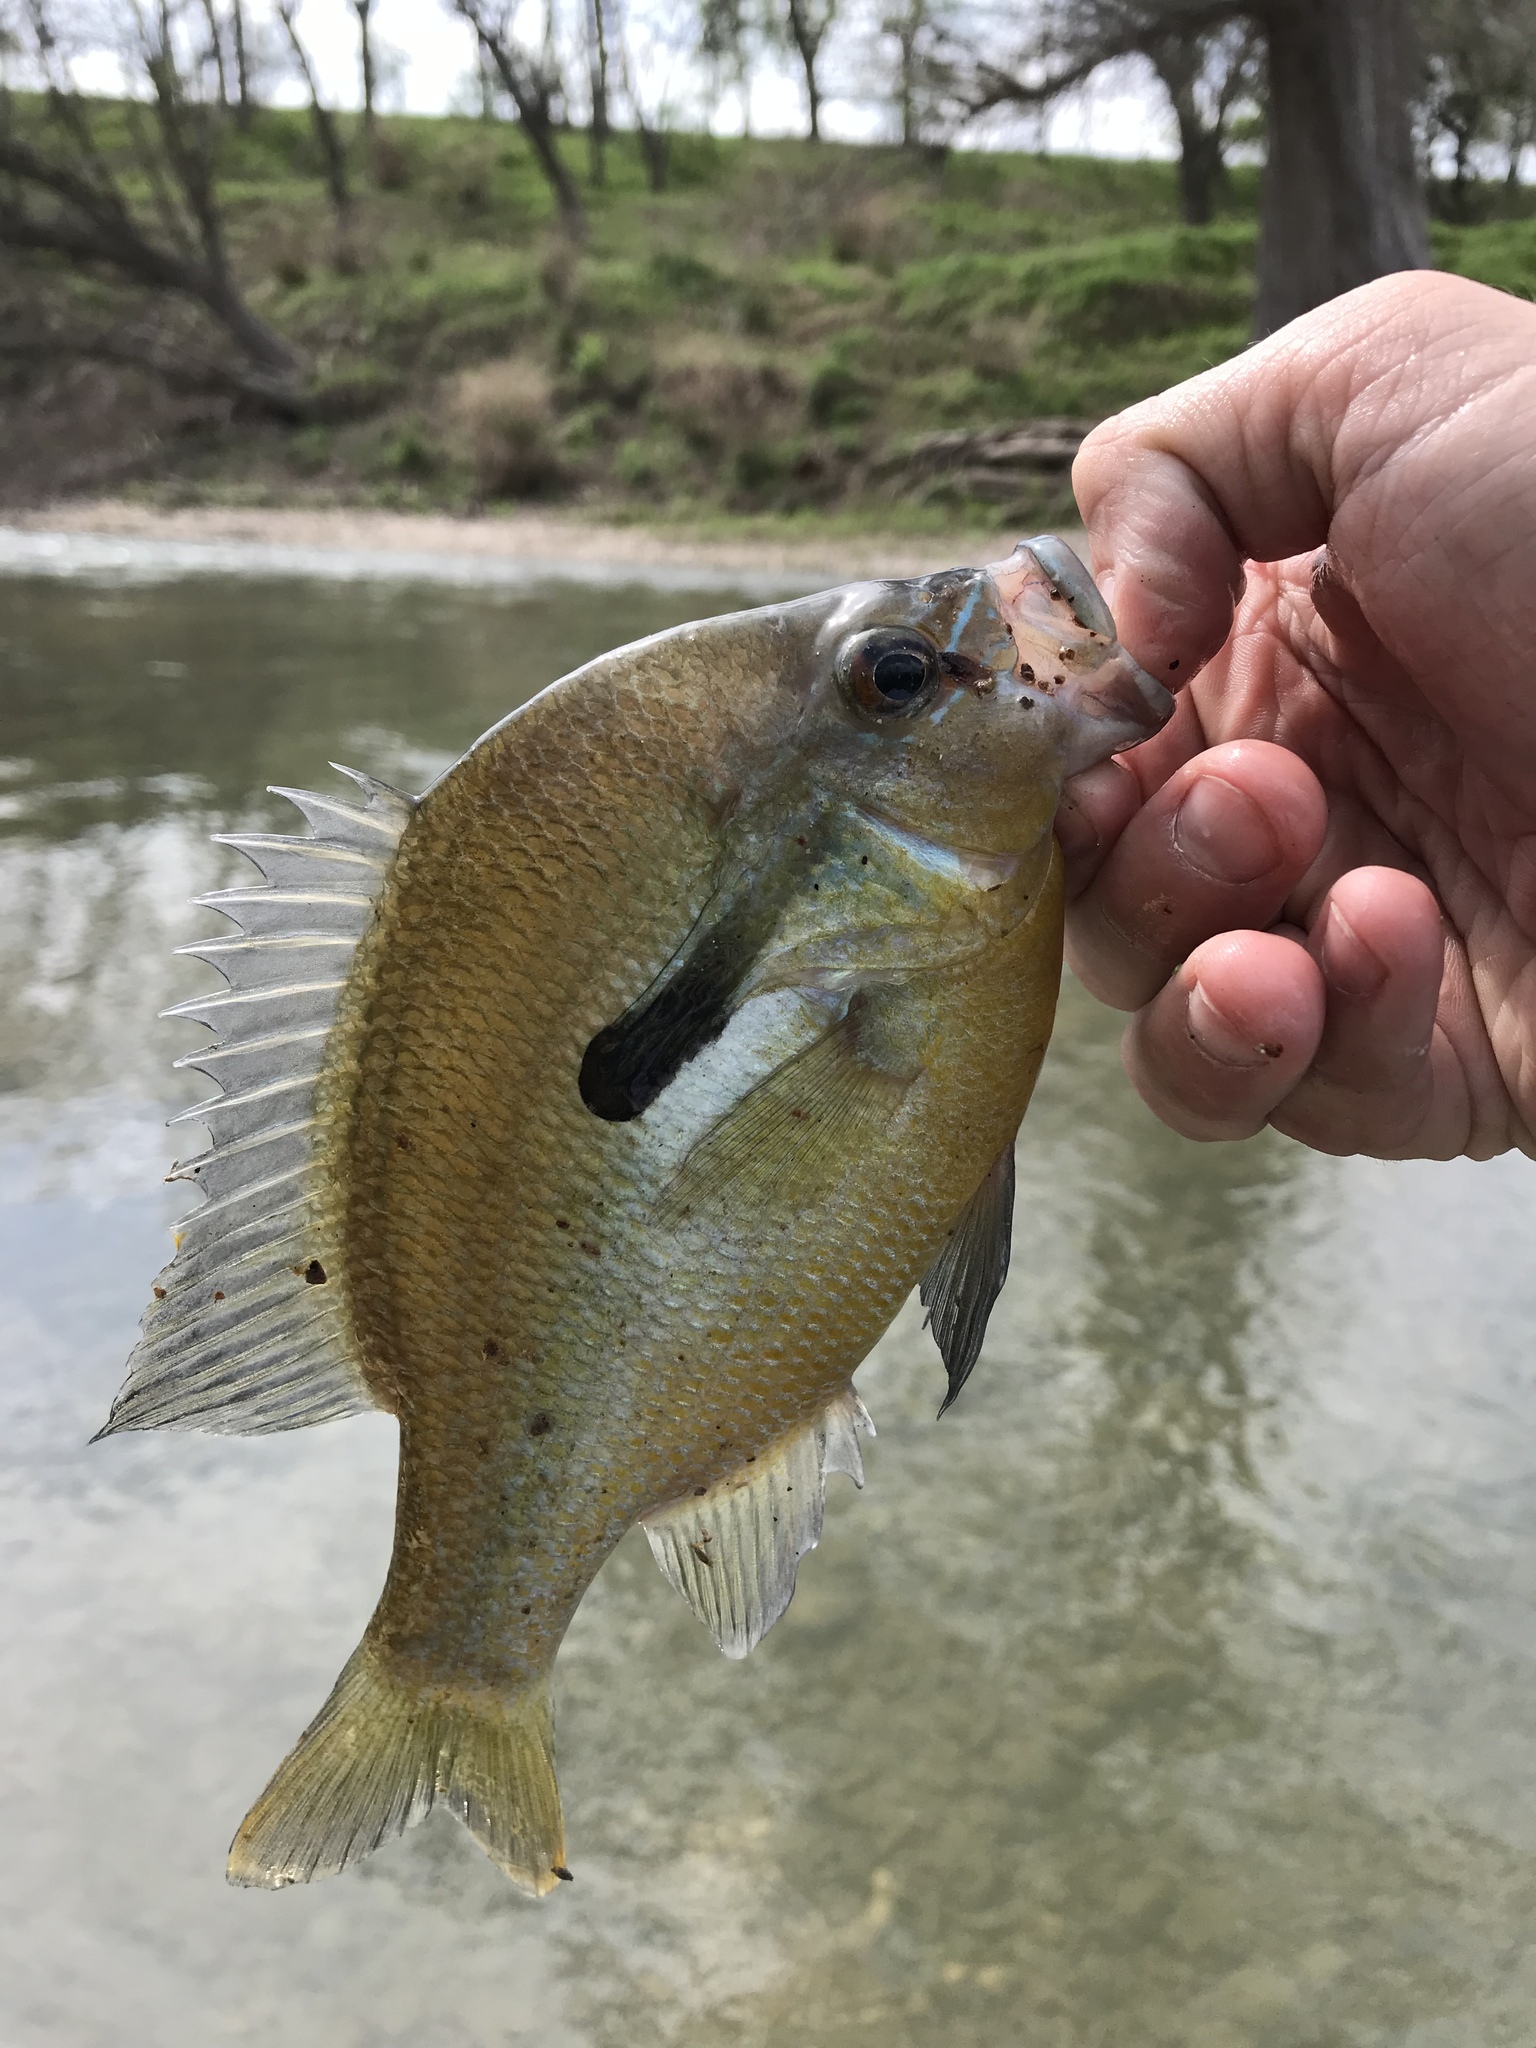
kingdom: Animalia
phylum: Chordata
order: Perciformes
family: Centrarchidae
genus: Lepomis
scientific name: Lepomis auritus
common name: Redbreast sunfish
